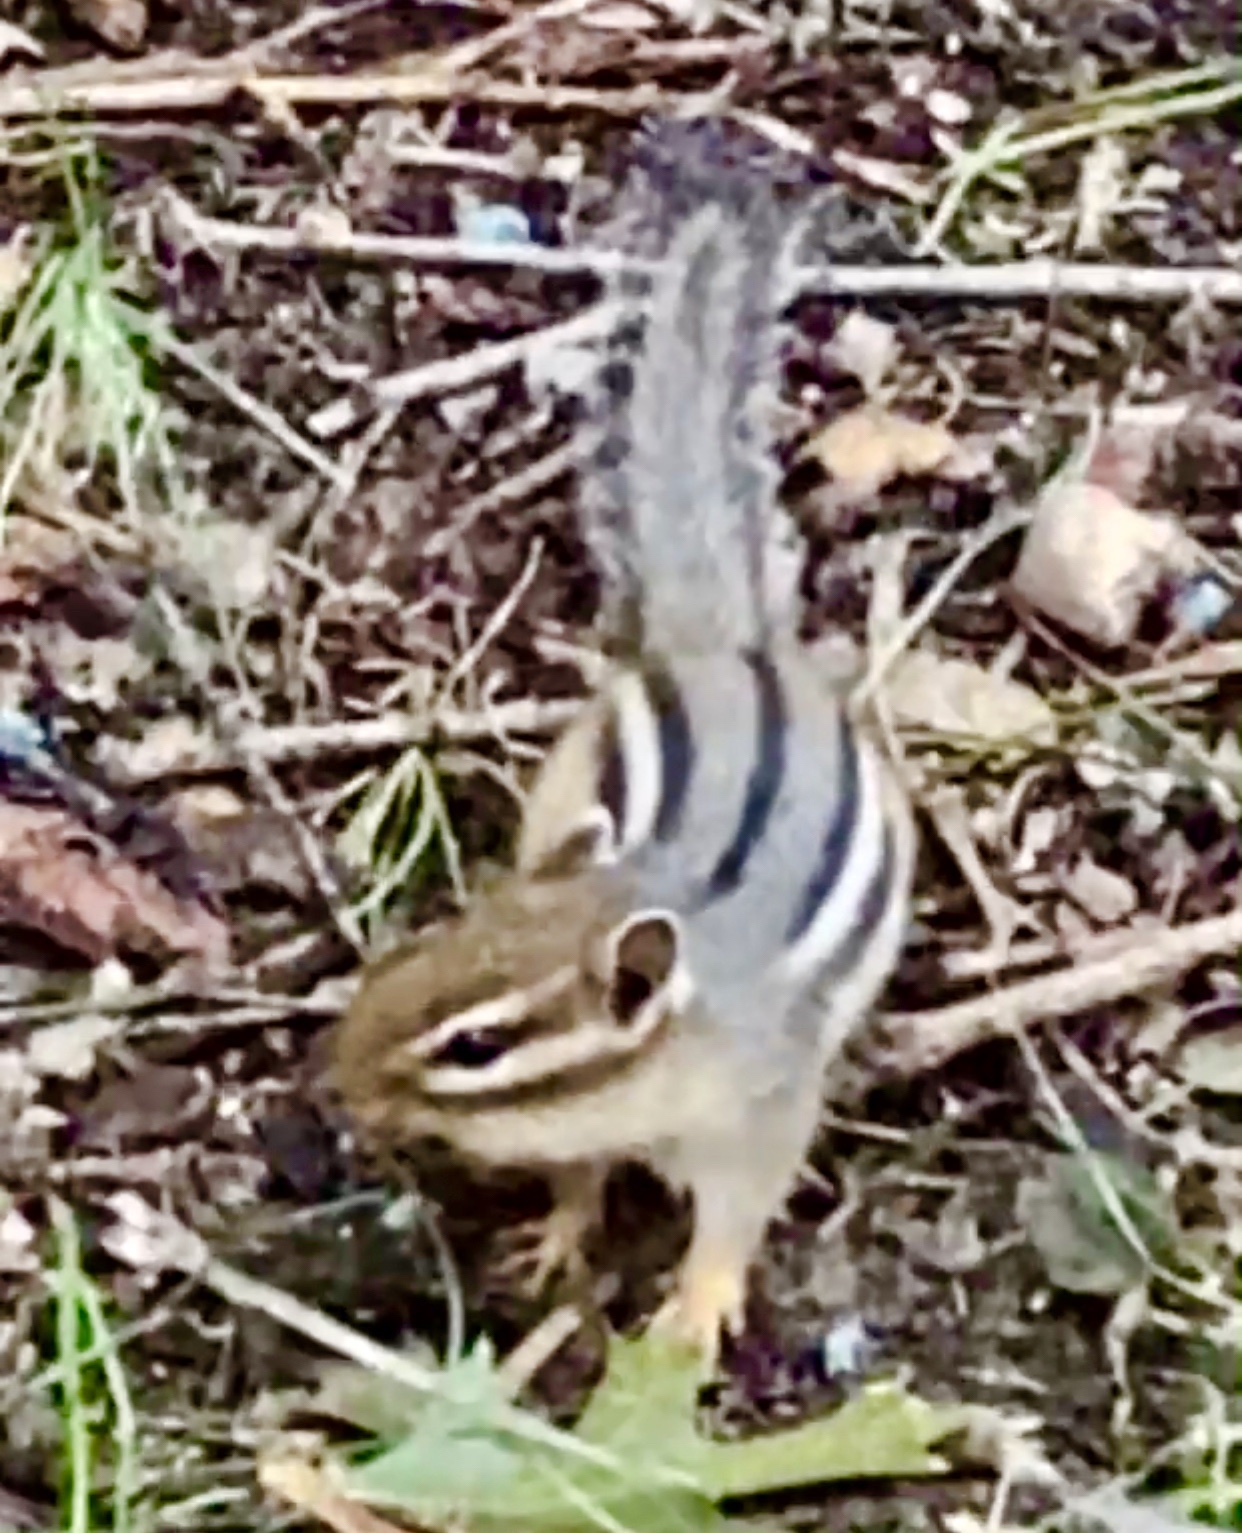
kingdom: Animalia
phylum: Chordata
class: Mammalia
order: Rodentia
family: Sciuridae
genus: Tamias
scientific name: Tamias striatus
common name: Eastern chipmunk
